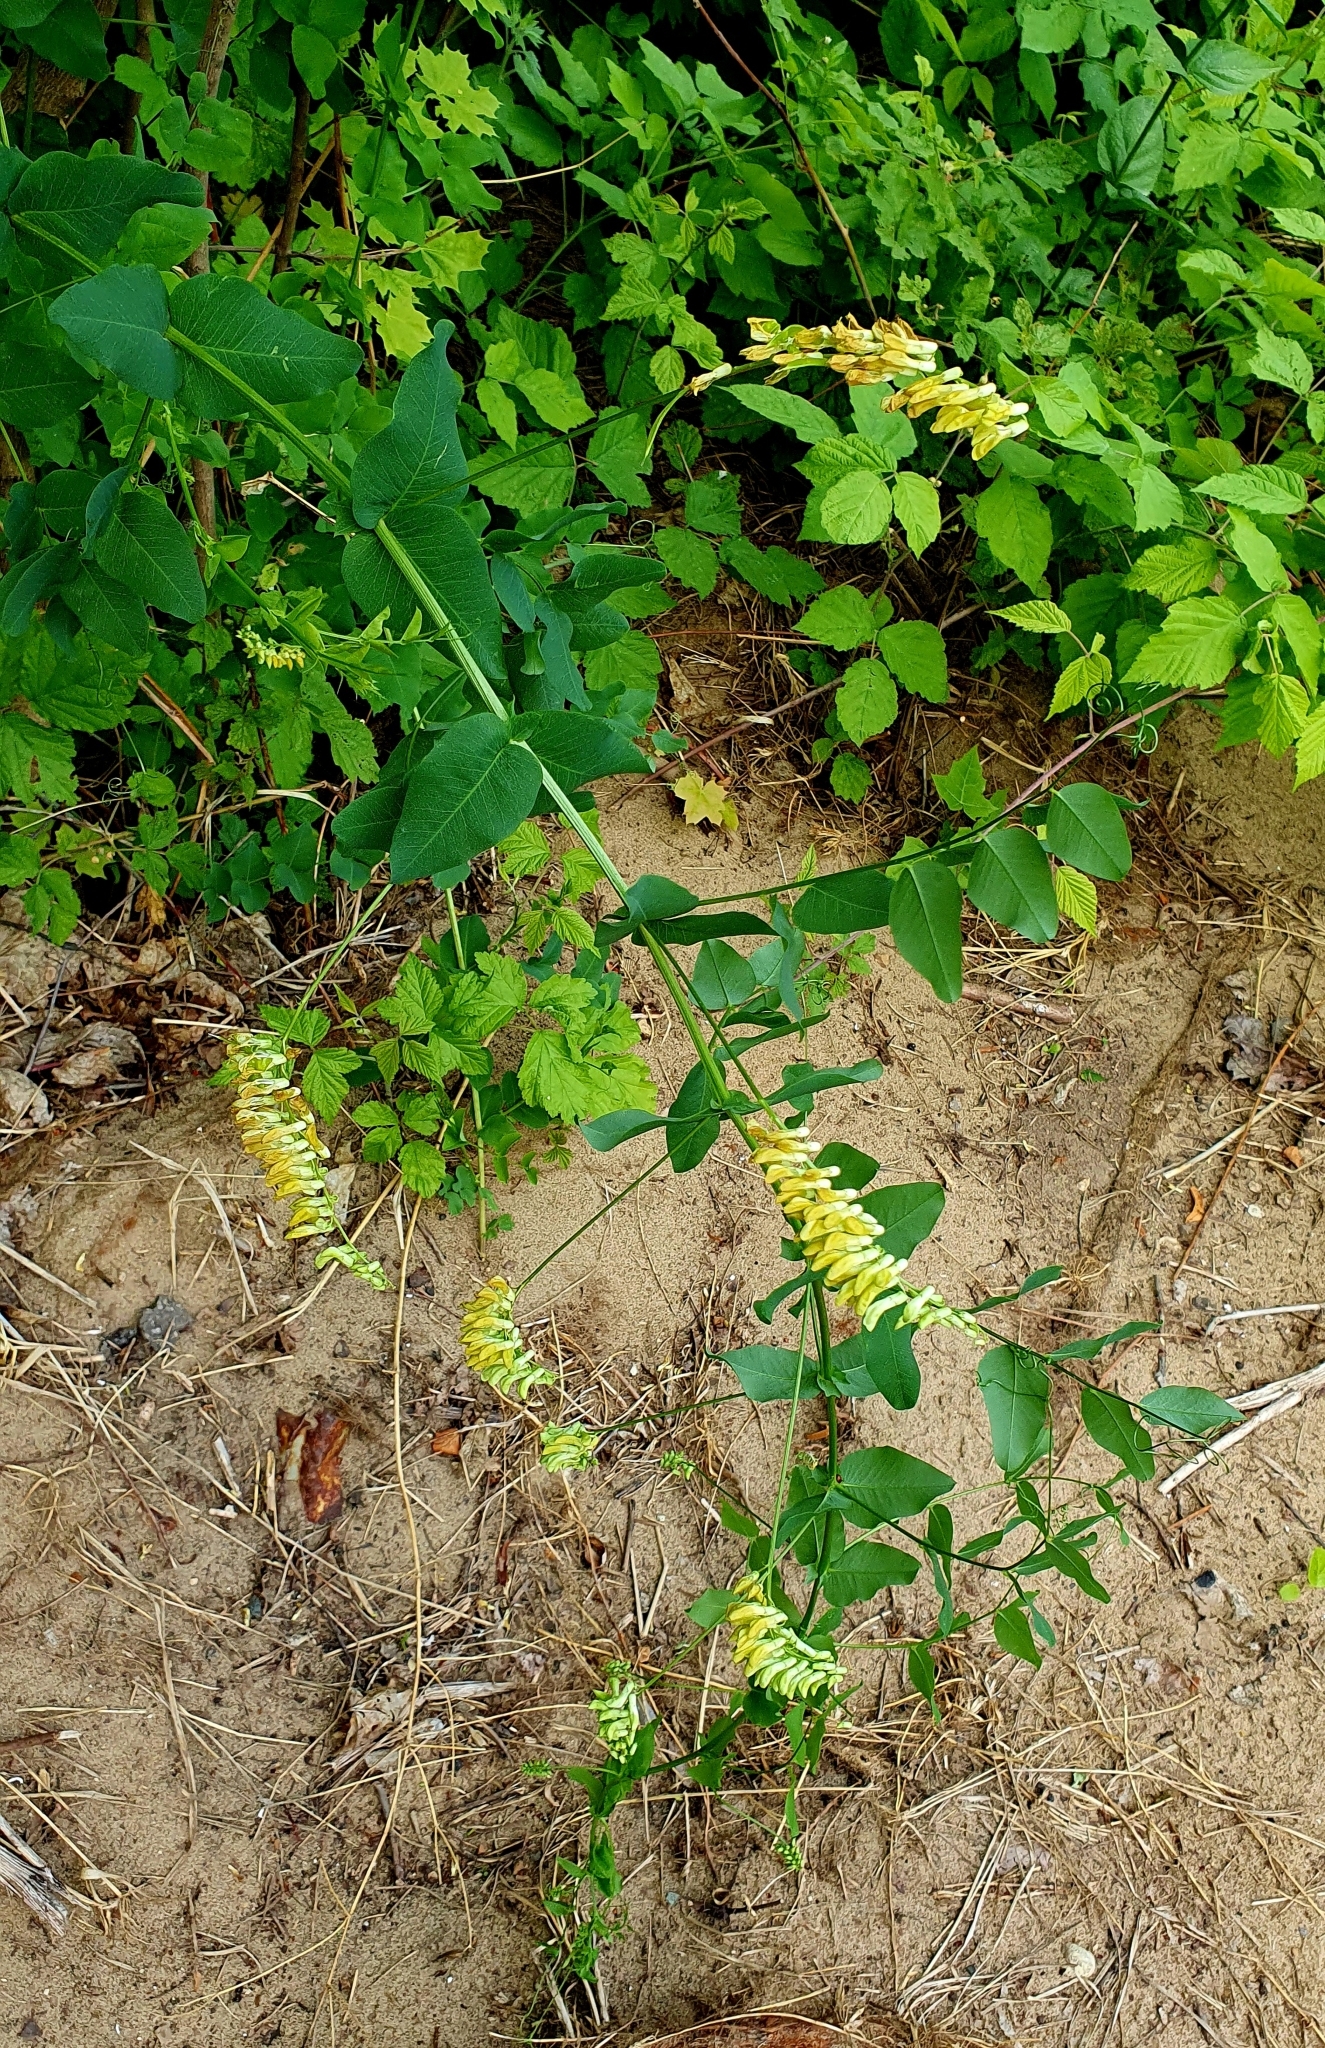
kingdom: Plantae
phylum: Tracheophyta
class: Magnoliopsida
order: Fabales
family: Fabaceae
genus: Vicia
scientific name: Vicia pisiformis
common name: Pale-flower vetch
